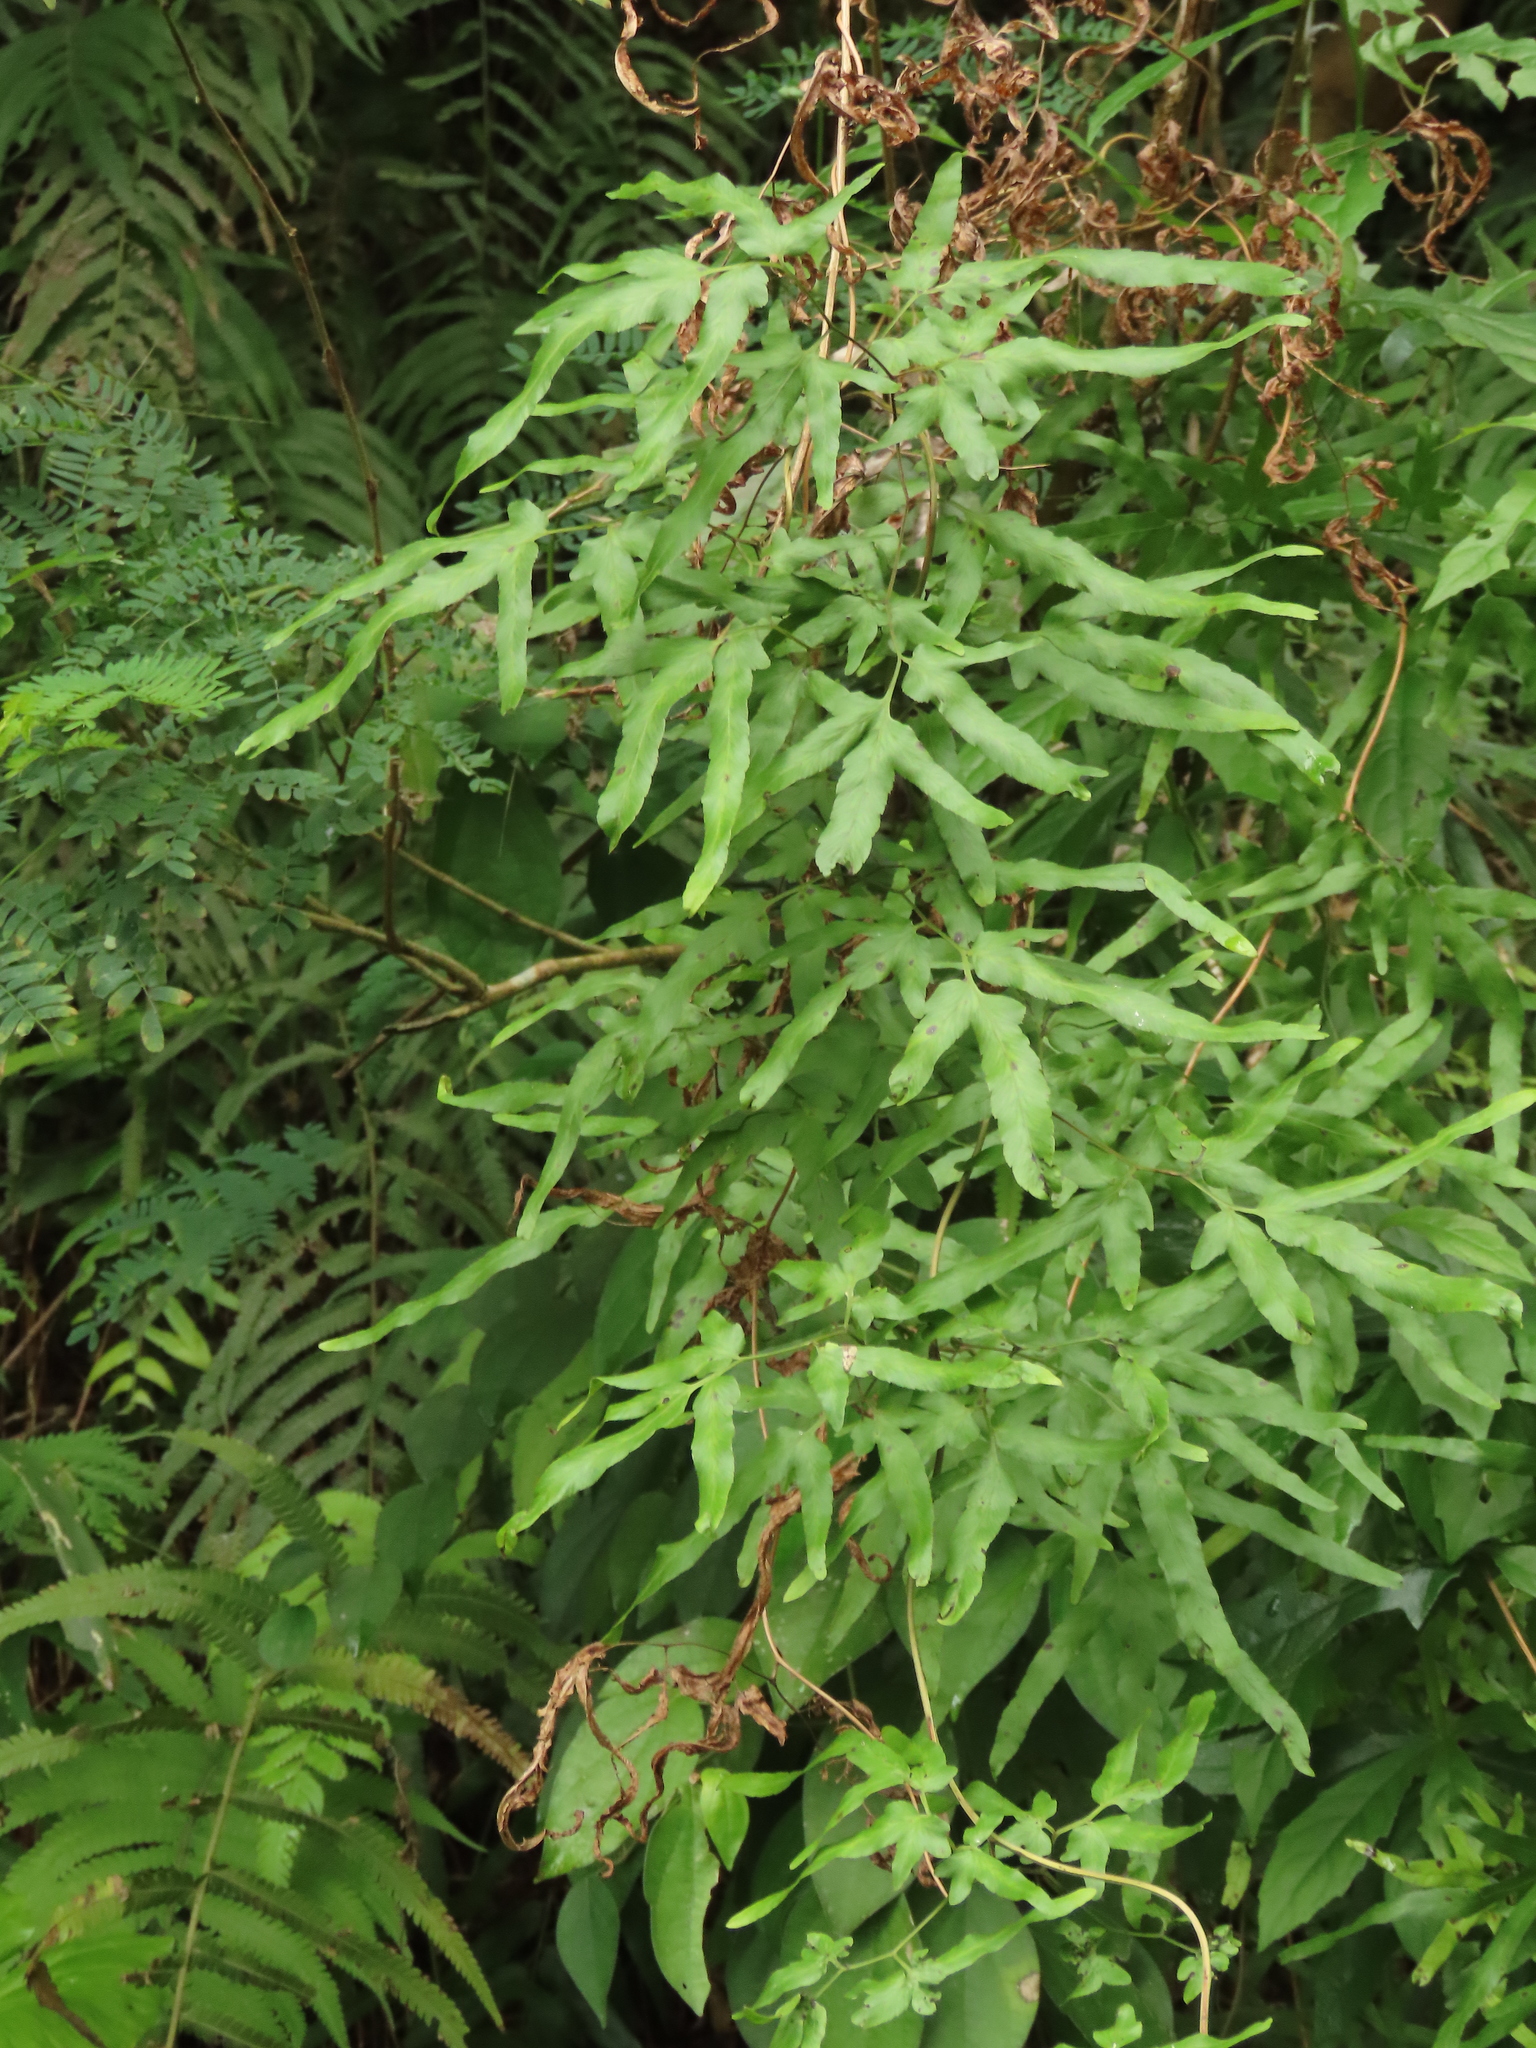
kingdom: Plantae
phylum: Tracheophyta
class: Polypodiopsida
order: Schizaeales
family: Lygodiaceae
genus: Lygodium
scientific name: Lygodium japonicum
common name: Japanese climbing fern
